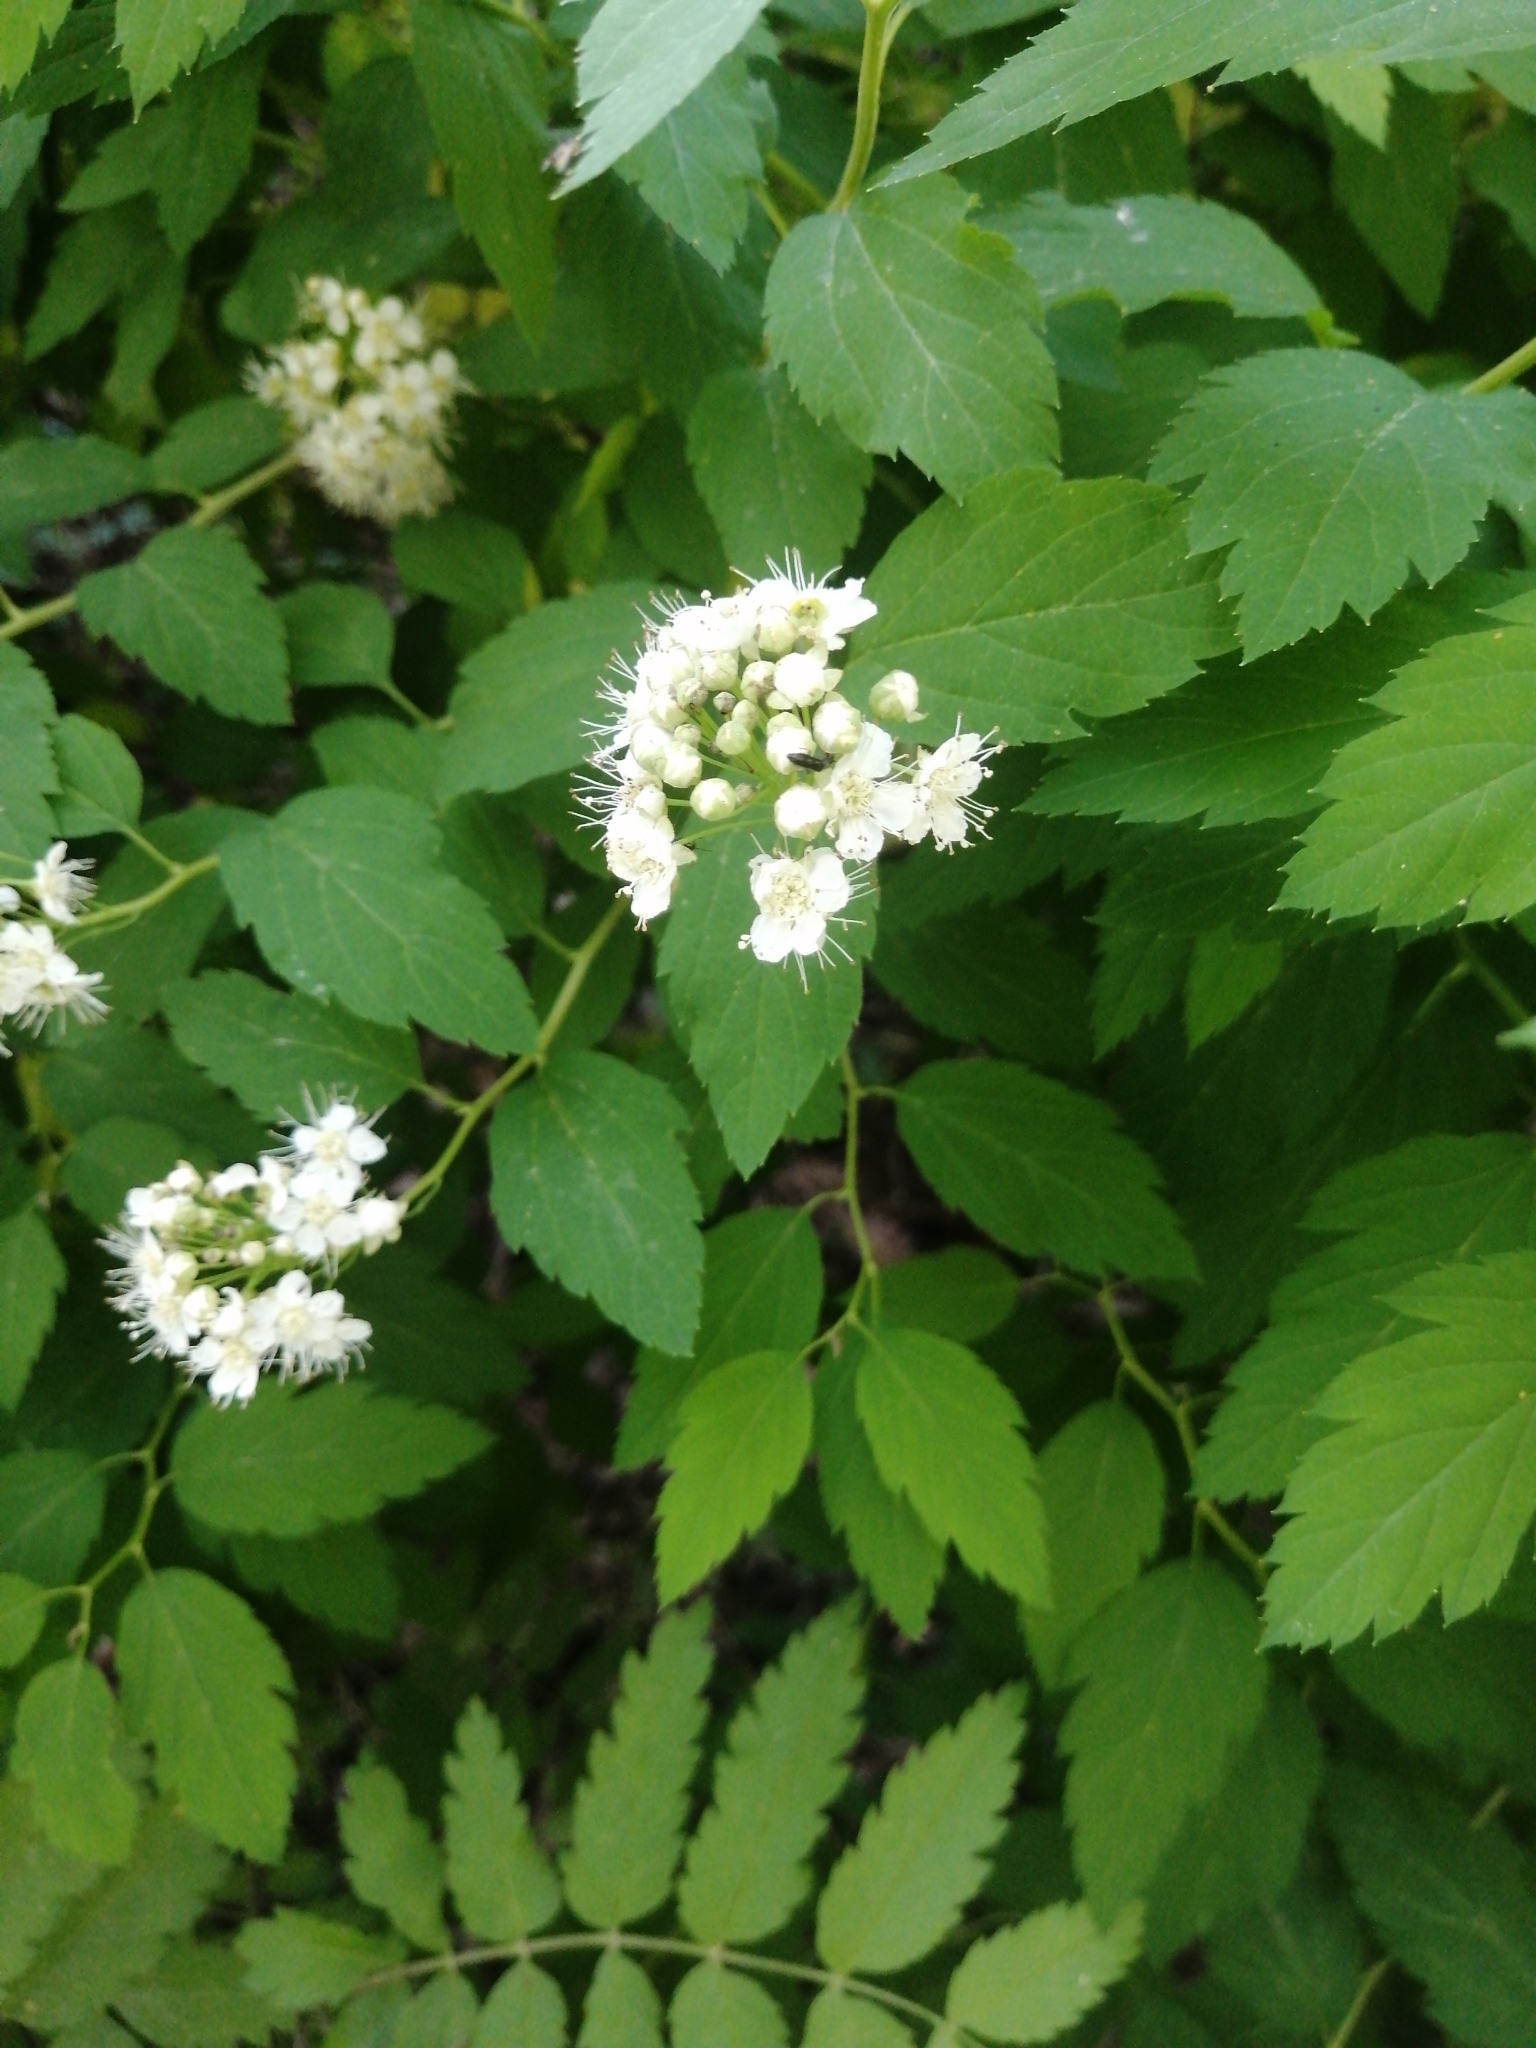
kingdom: Plantae
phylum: Tracheophyta
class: Magnoliopsida
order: Rosales
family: Rosaceae
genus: Spiraea
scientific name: Spiraea chamaedryfolia
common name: Elm-leaved spiraea
